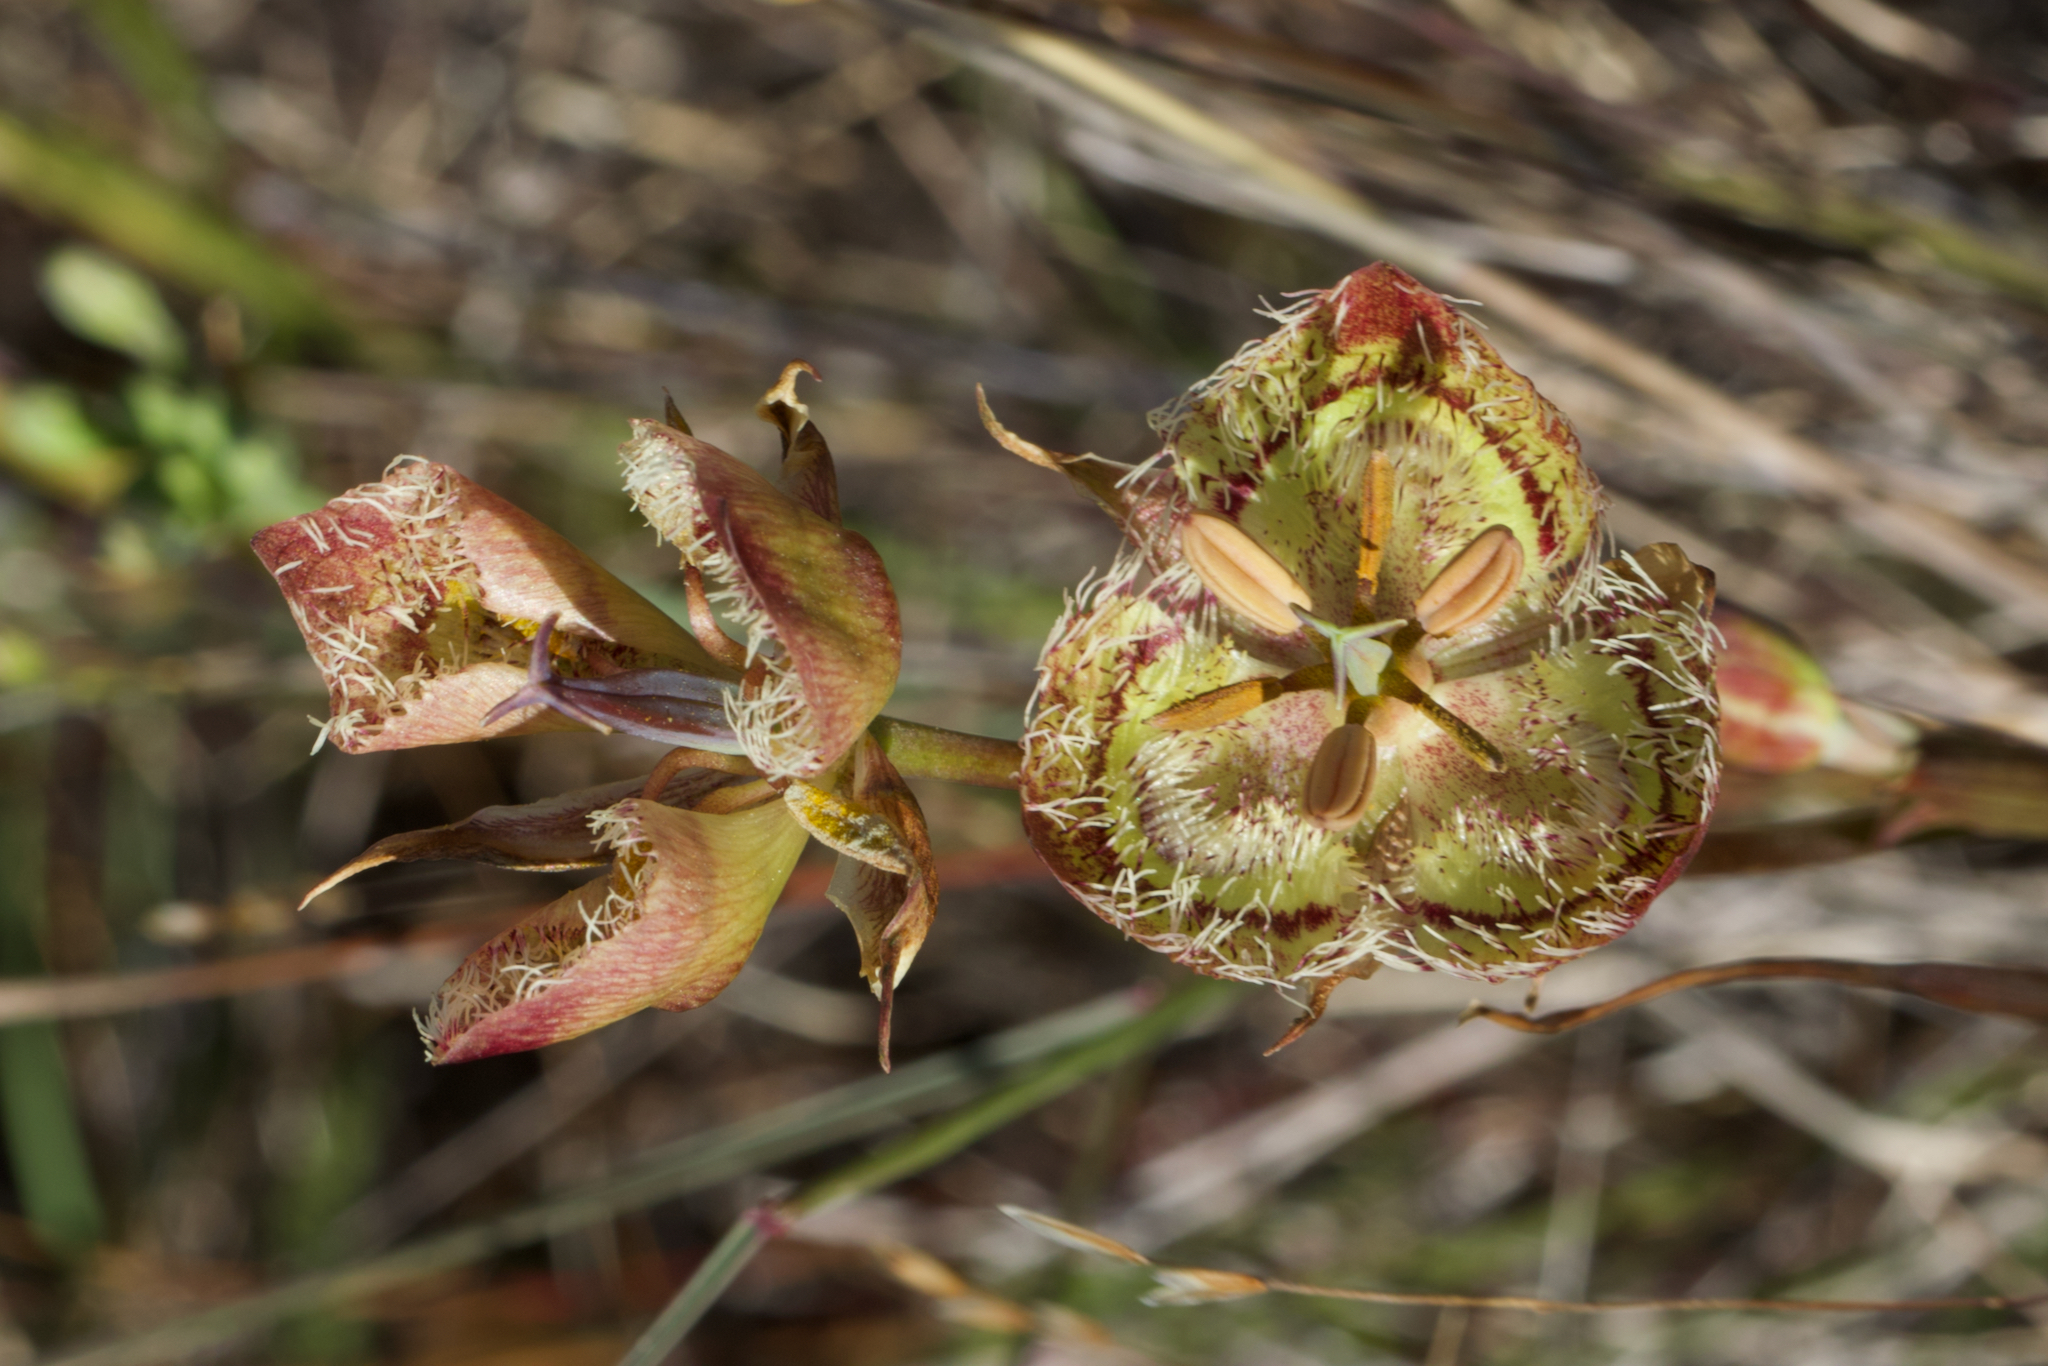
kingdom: Plantae
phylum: Tracheophyta
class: Liliopsida
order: Liliales
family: Liliaceae
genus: Calochortus
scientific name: Calochortus tiburonensis
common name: Tiburon mariposa-lily
